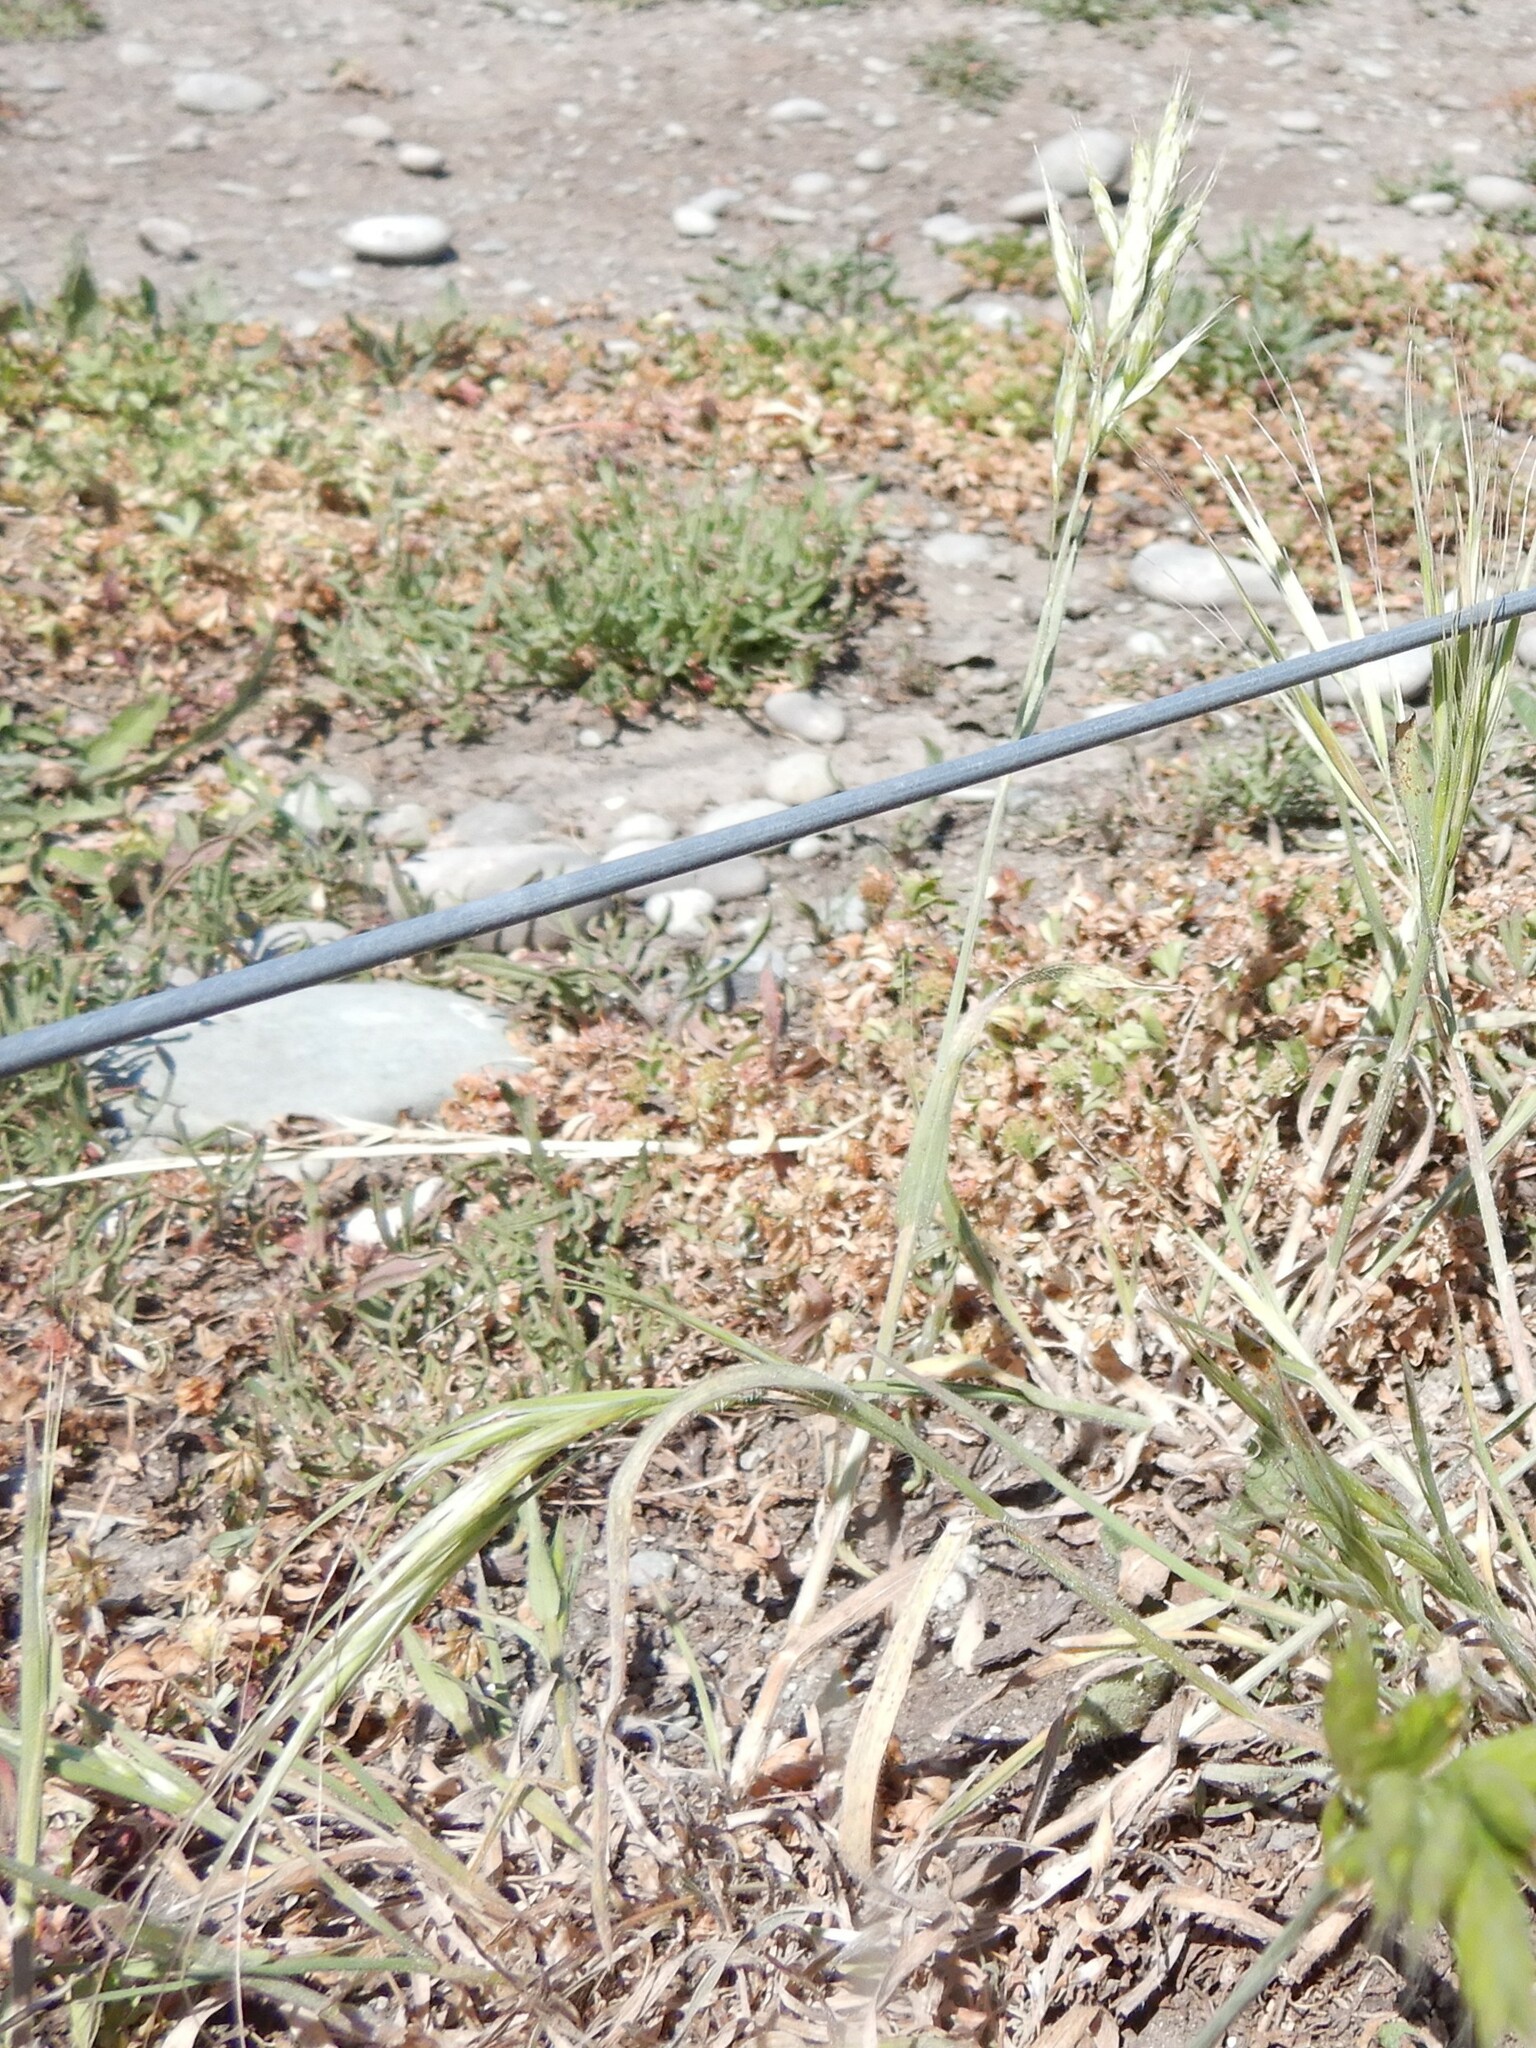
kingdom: Plantae
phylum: Tracheophyta
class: Liliopsida
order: Poales
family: Poaceae
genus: Bromus
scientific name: Bromus hordeaceus
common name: Soft brome
